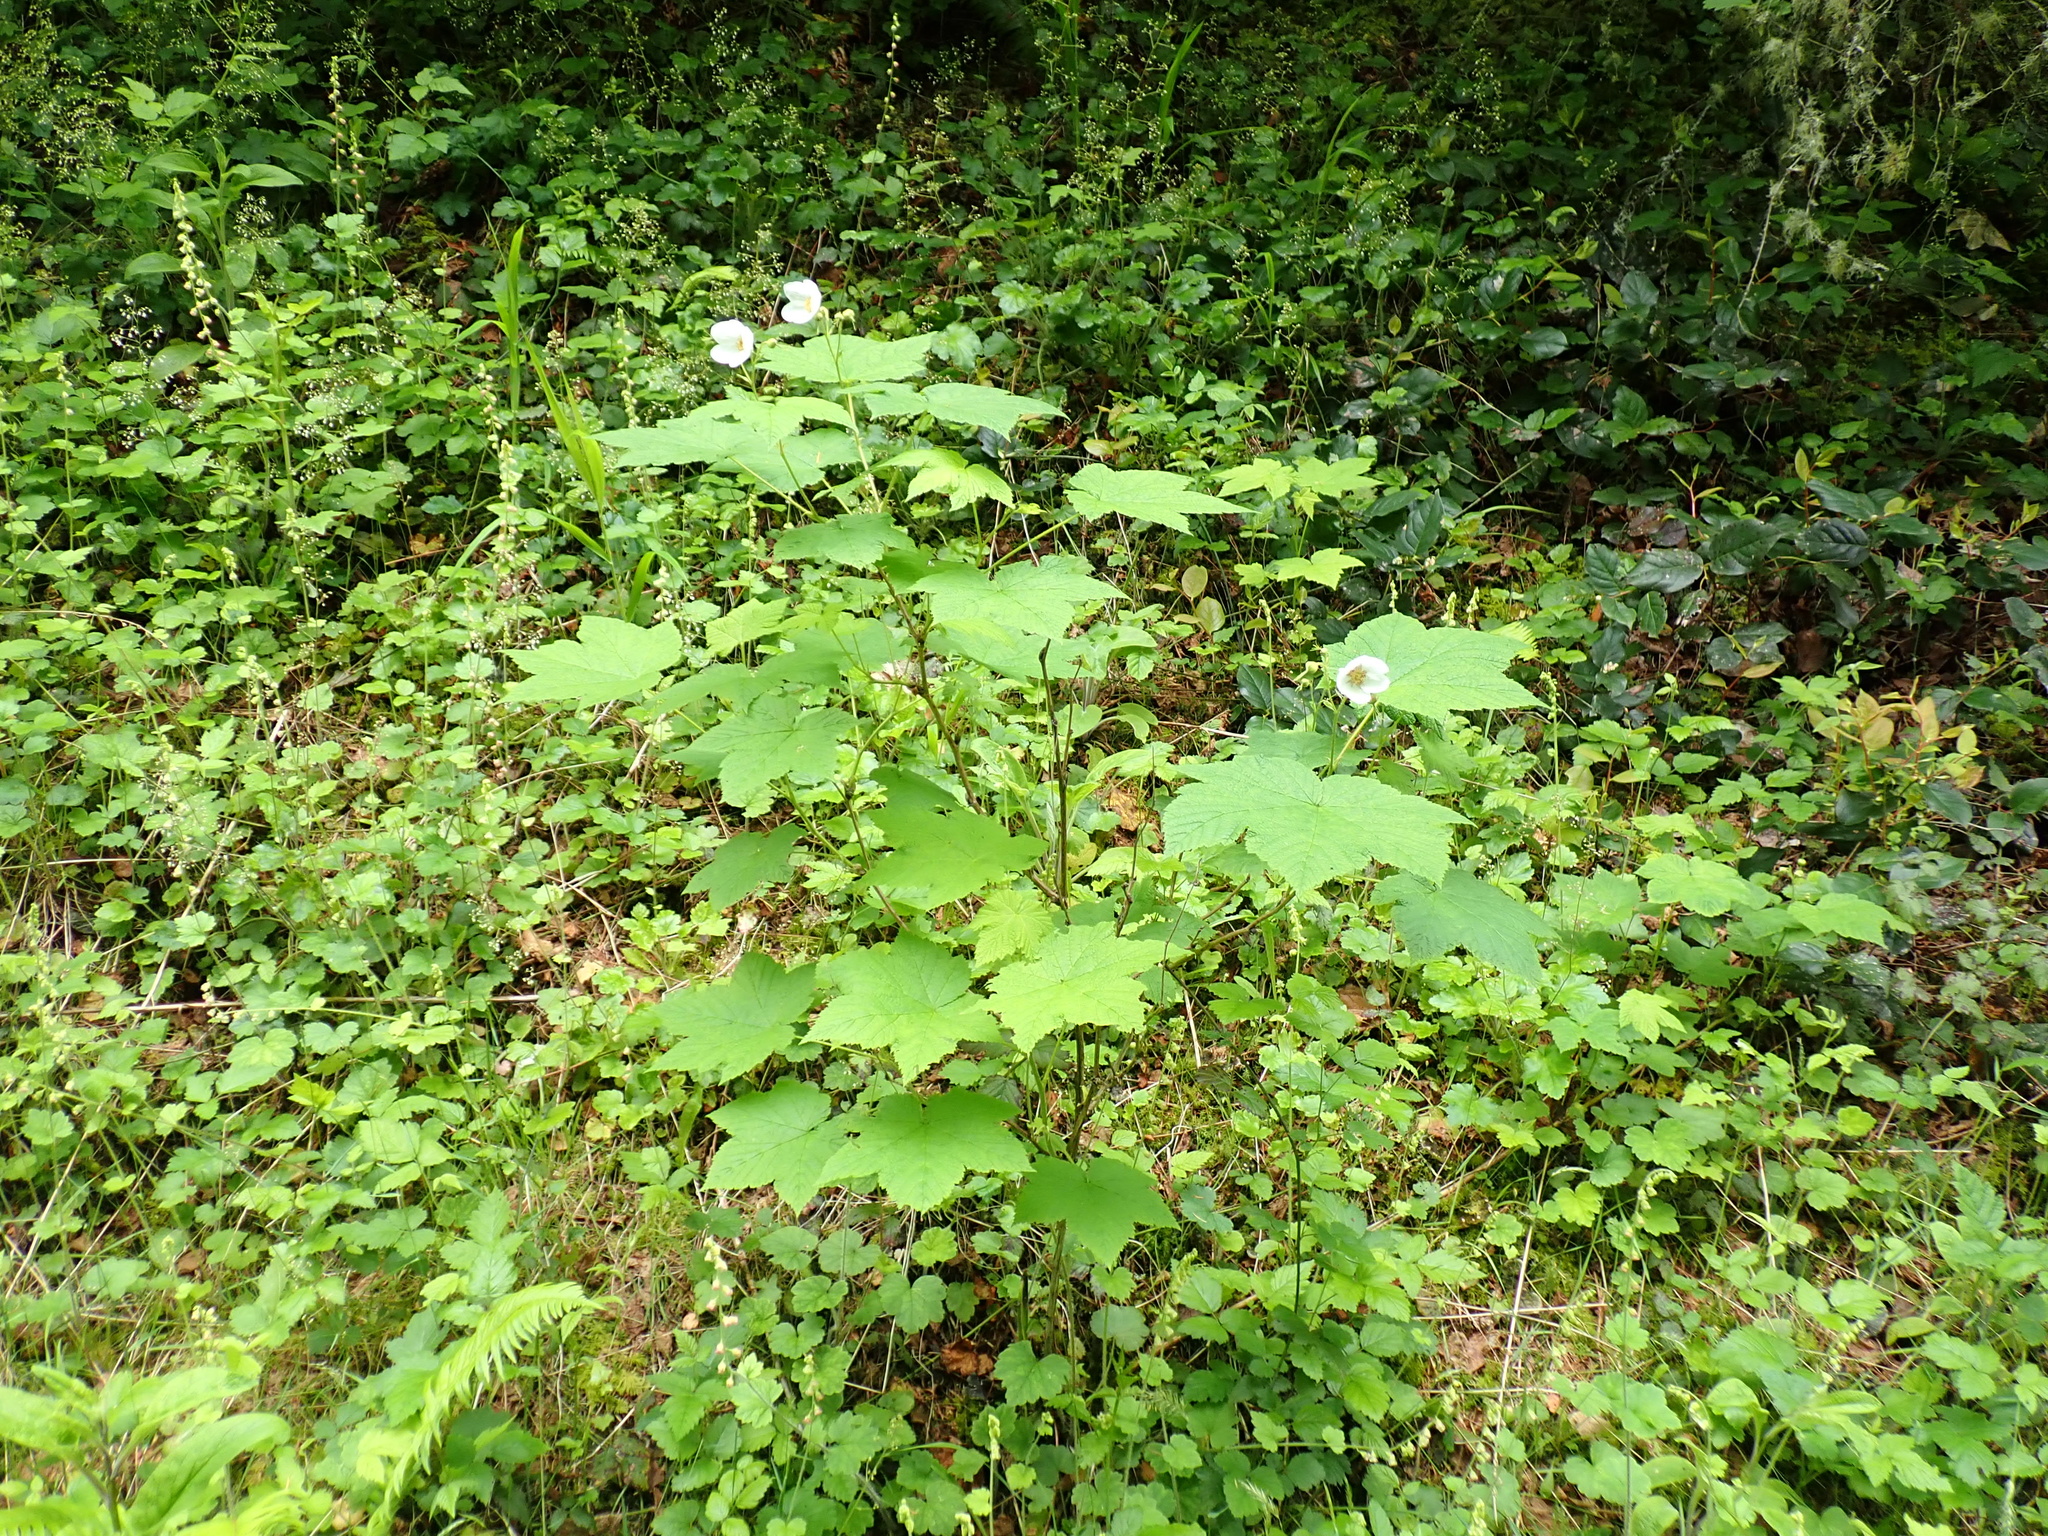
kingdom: Plantae
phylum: Tracheophyta
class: Magnoliopsida
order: Rosales
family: Rosaceae
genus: Rubus
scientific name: Rubus parviflorus
